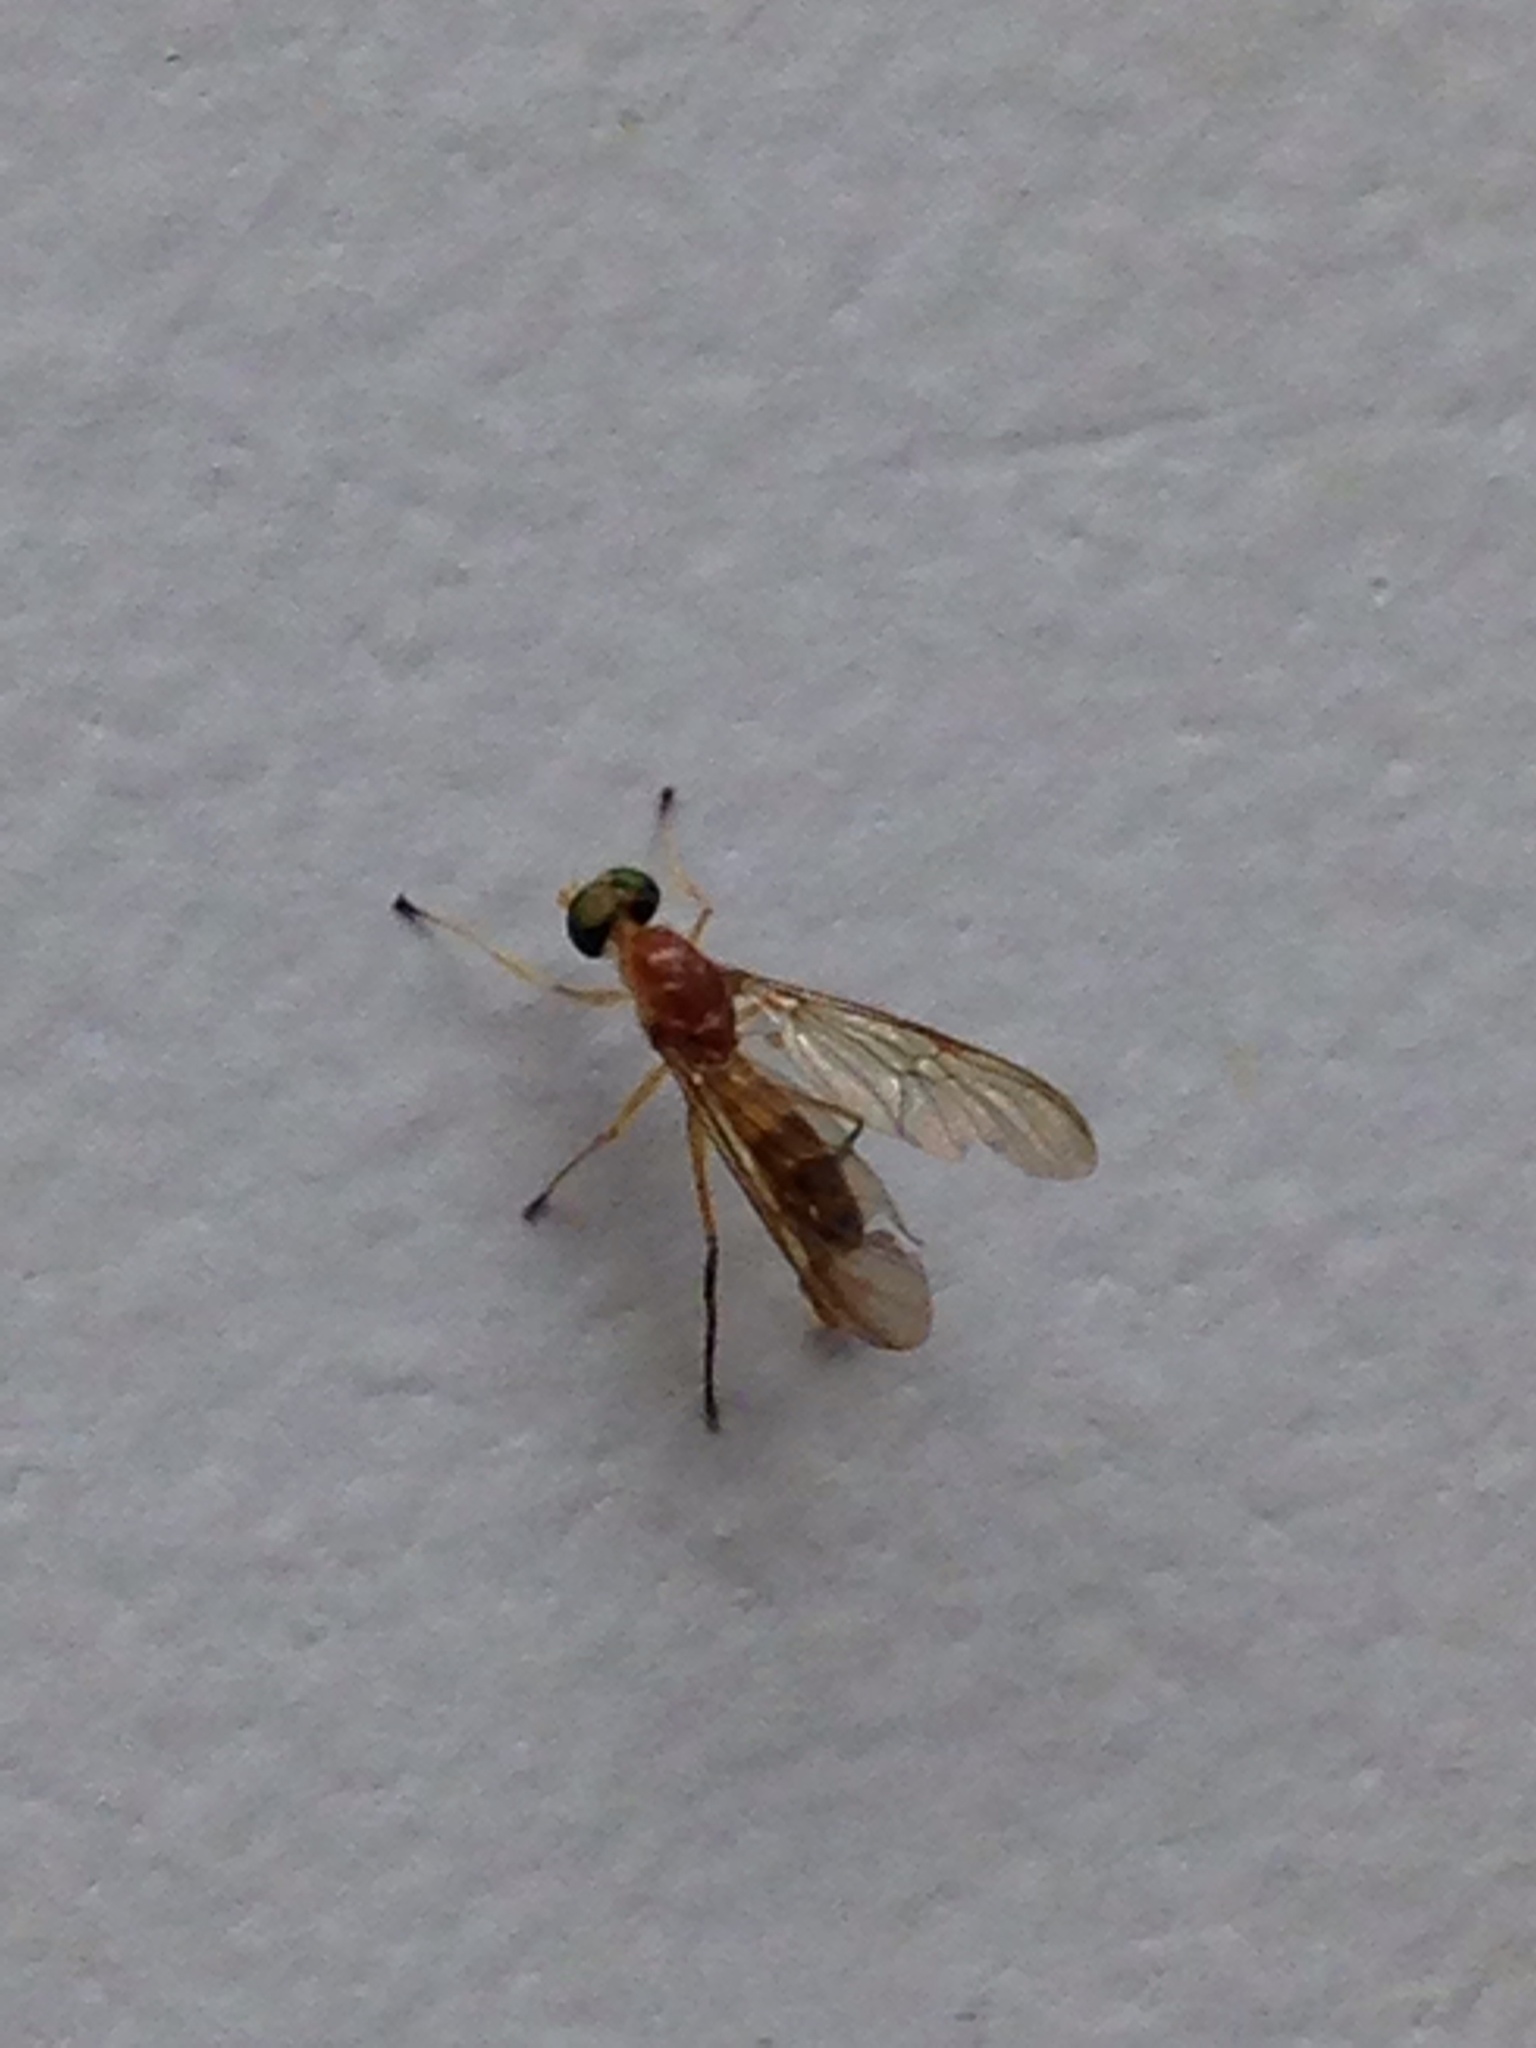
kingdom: Animalia
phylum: Arthropoda
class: Insecta
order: Diptera
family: Stratiomyidae
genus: Ptecticus
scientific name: Ptecticus trivittatus
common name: Compost fly
